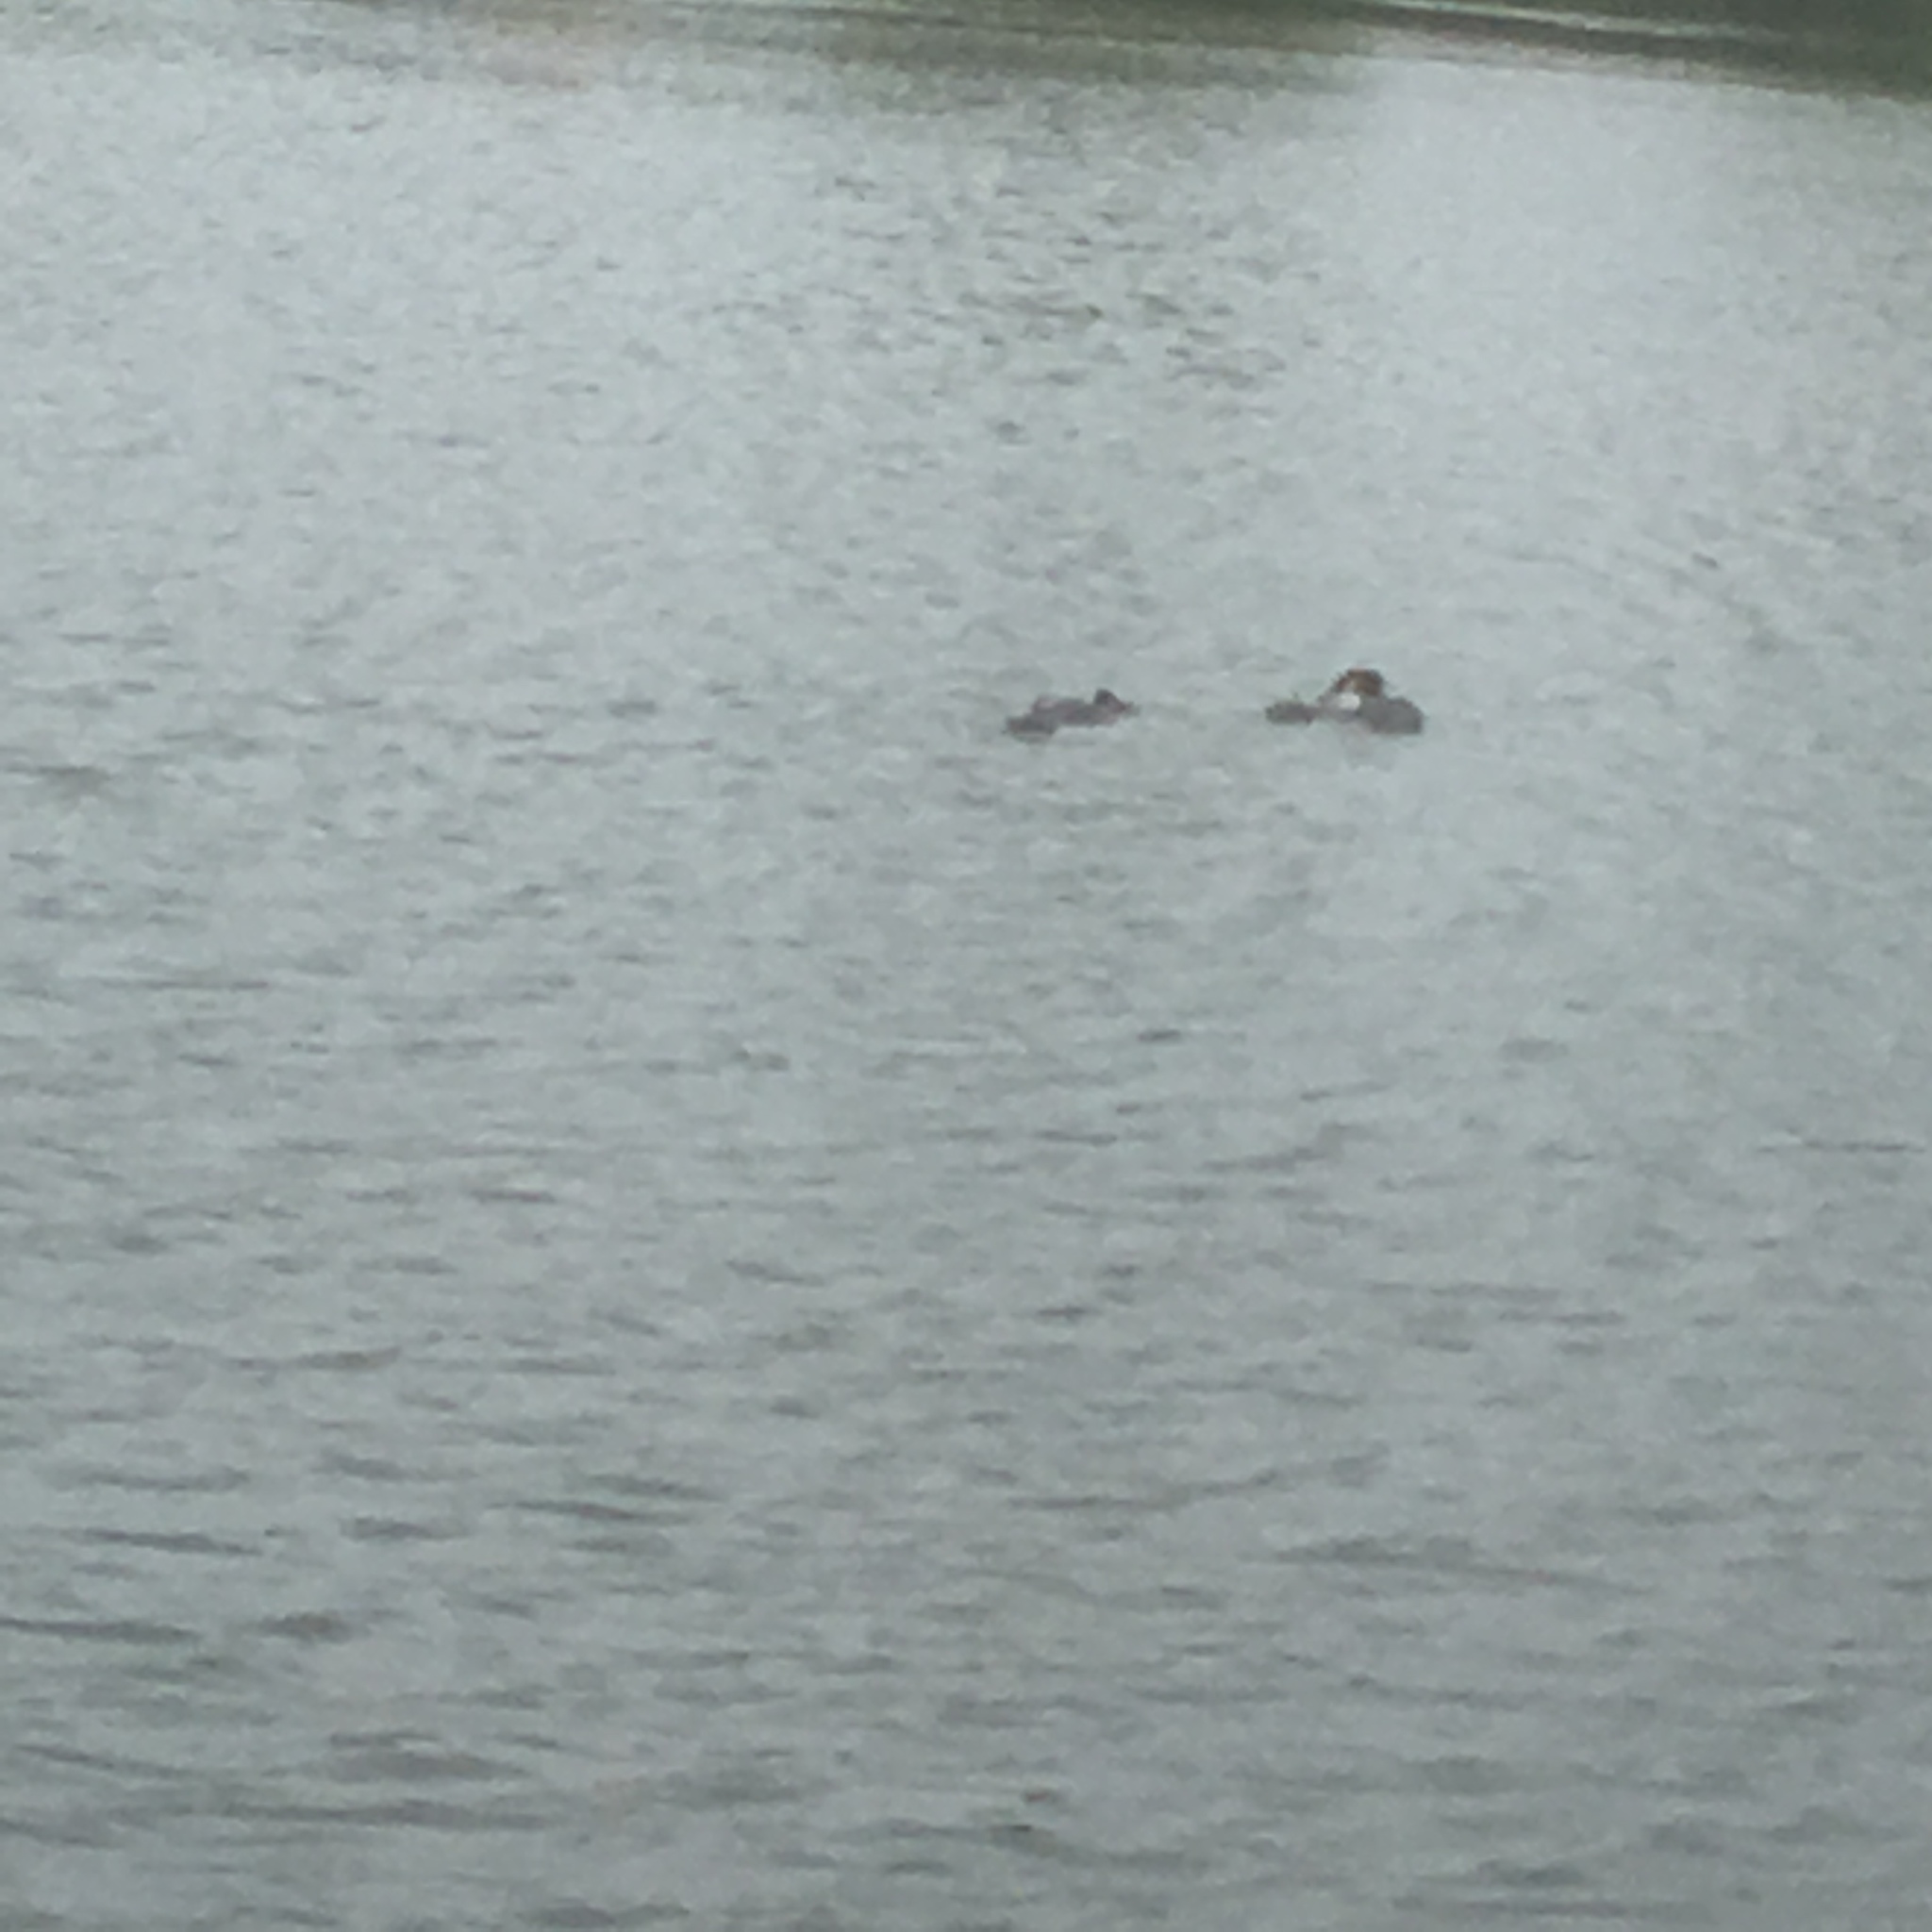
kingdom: Animalia
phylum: Chordata
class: Aves
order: Podicipediformes
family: Podicipedidae
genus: Podiceps
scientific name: Podiceps cristatus
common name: Great crested grebe
